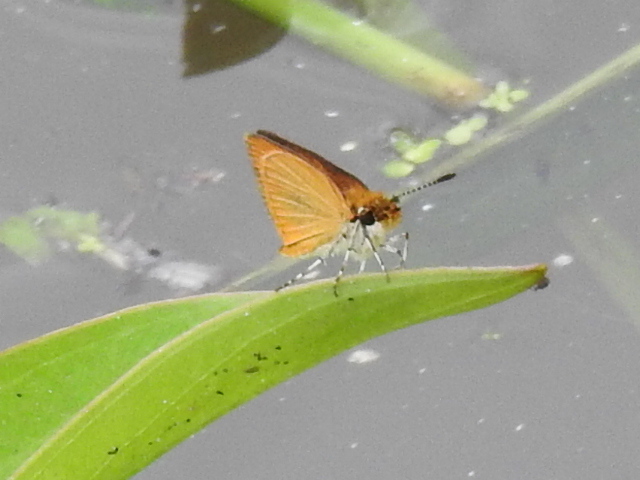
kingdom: Animalia
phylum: Arthropoda
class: Insecta
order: Lepidoptera
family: Hesperiidae
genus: Ancyloxypha
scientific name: Ancyloxypha numitor
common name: Least skipper
